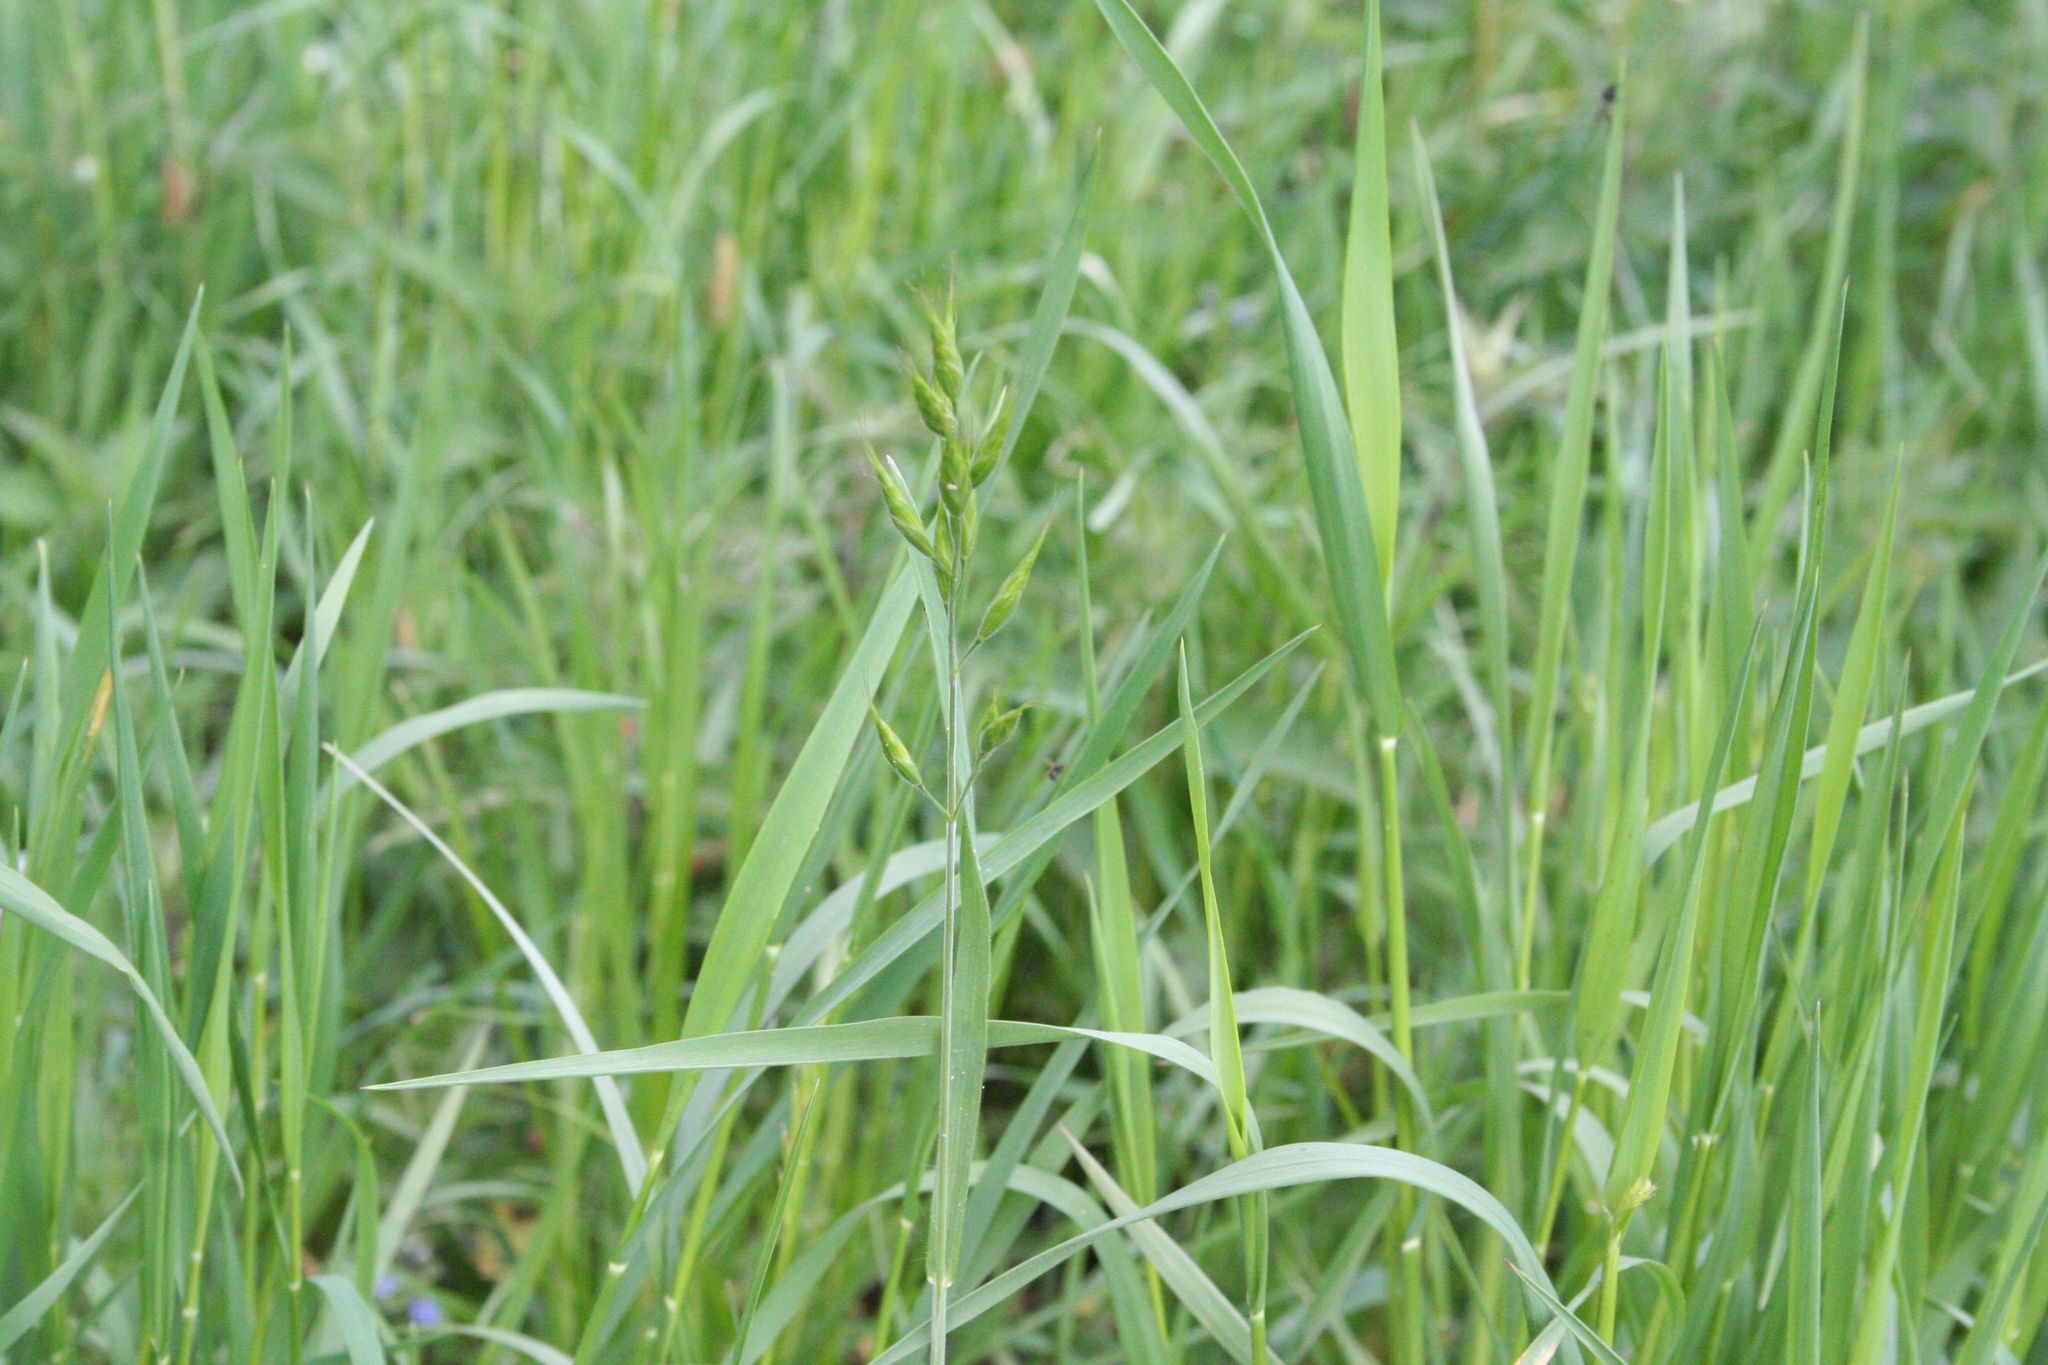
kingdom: Plantae
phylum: Tracheophyta
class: Liliopsida
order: Poales
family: Poaceae
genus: Bromus
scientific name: Bromus hordeaceus
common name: Soft brome
